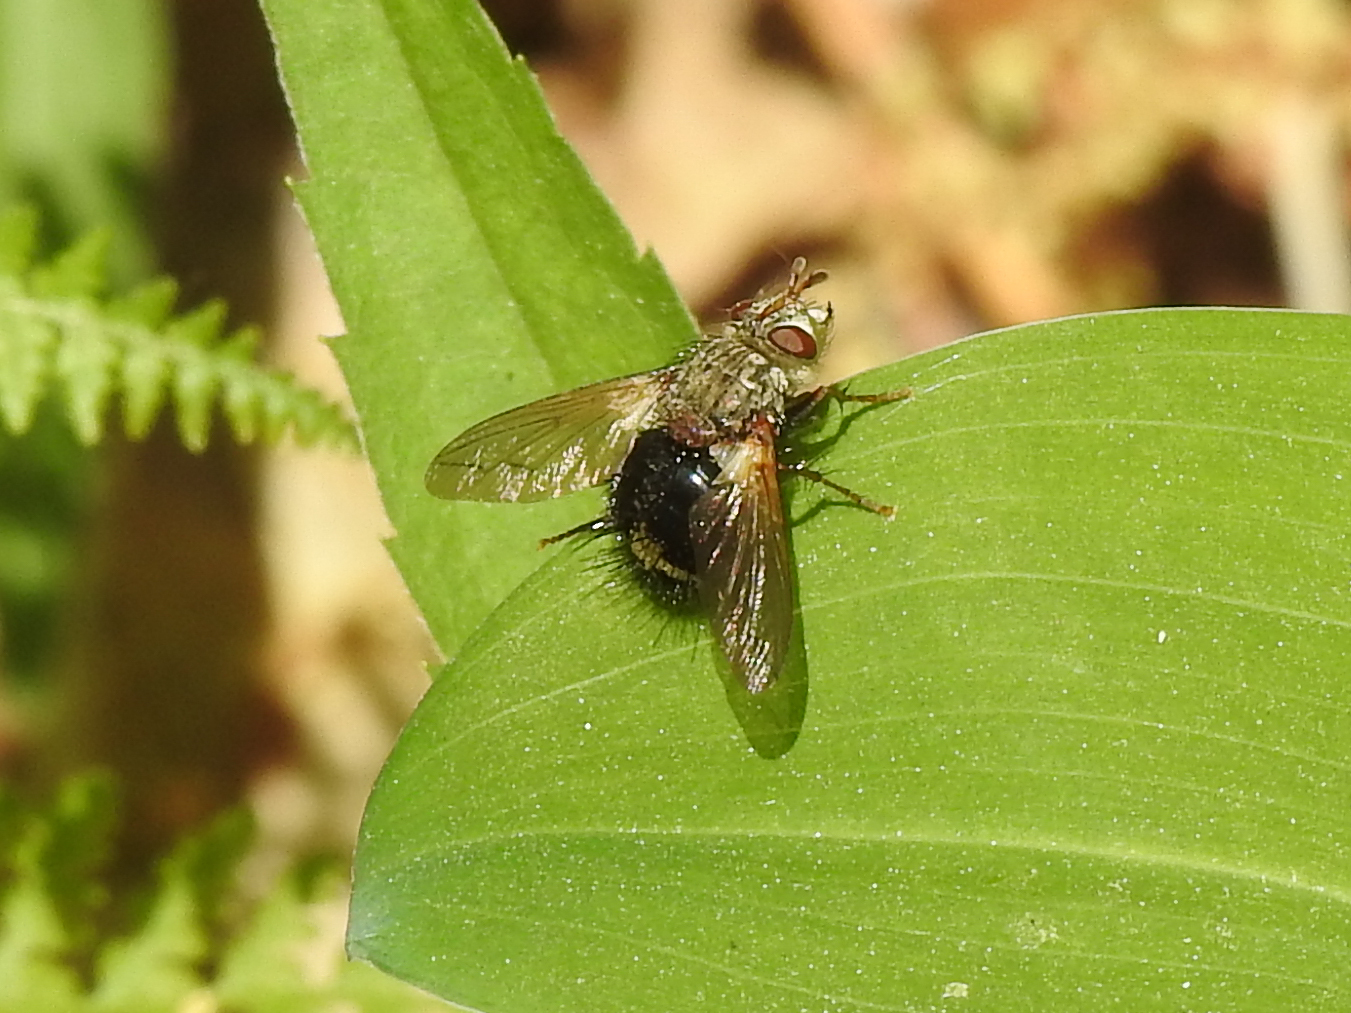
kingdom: Animalia
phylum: Arthropoda
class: Insecta
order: Diptera
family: Tachinidae
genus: Epalpus
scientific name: Epalpus signifer
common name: Early tachinid fly
